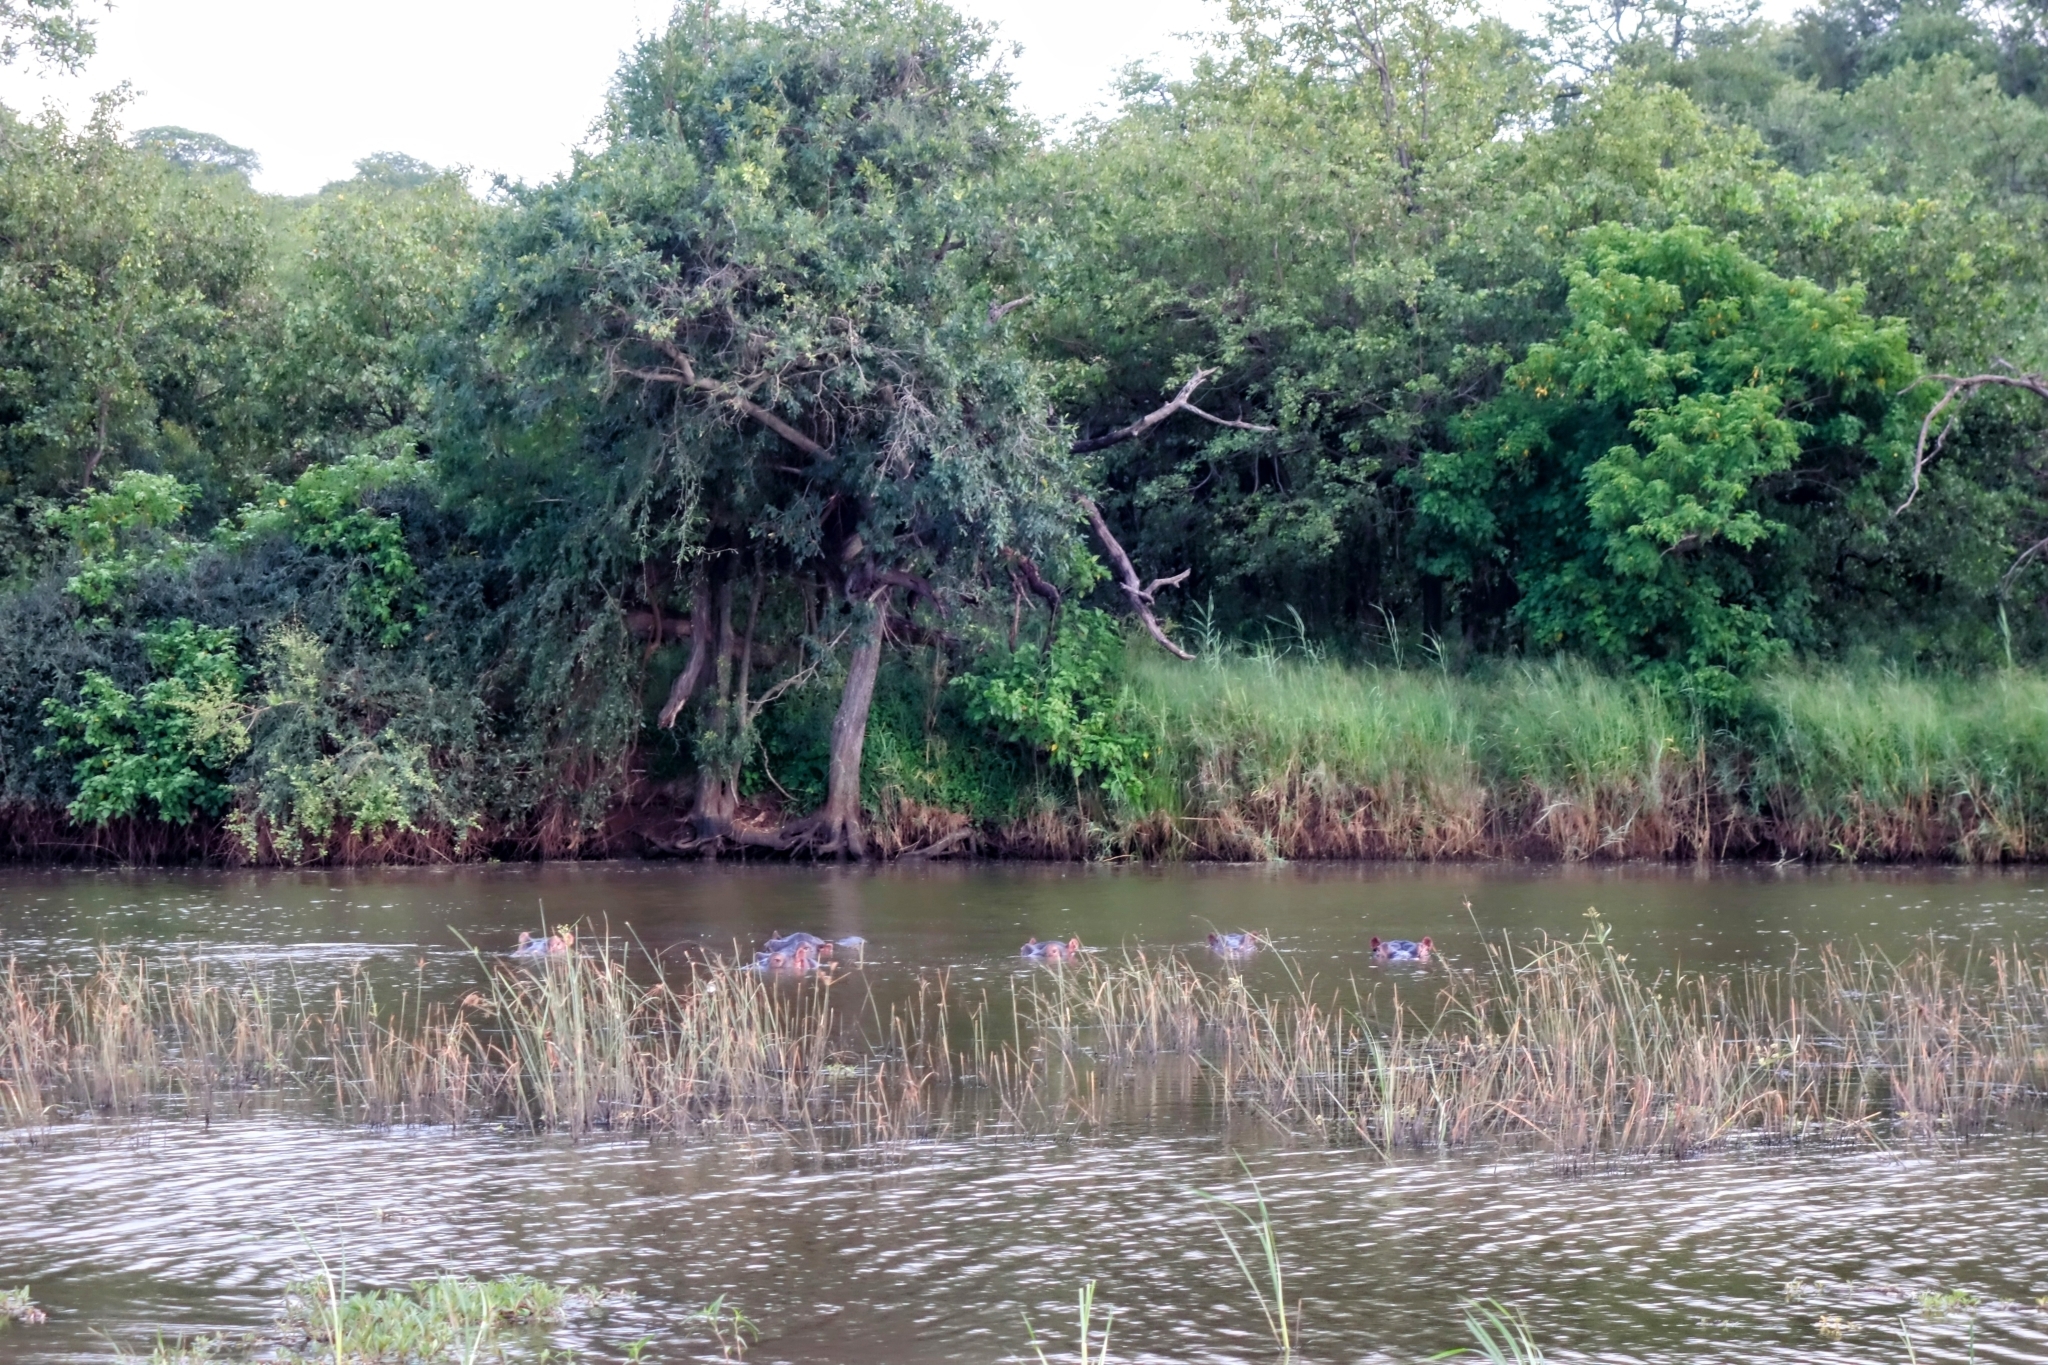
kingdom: Animalia
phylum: Chordata
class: Mammalia
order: Artiodactyla
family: Hippopotamidae
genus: Hippopotamus
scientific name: Hippopotamus amphibius
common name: Common hippopotamus
